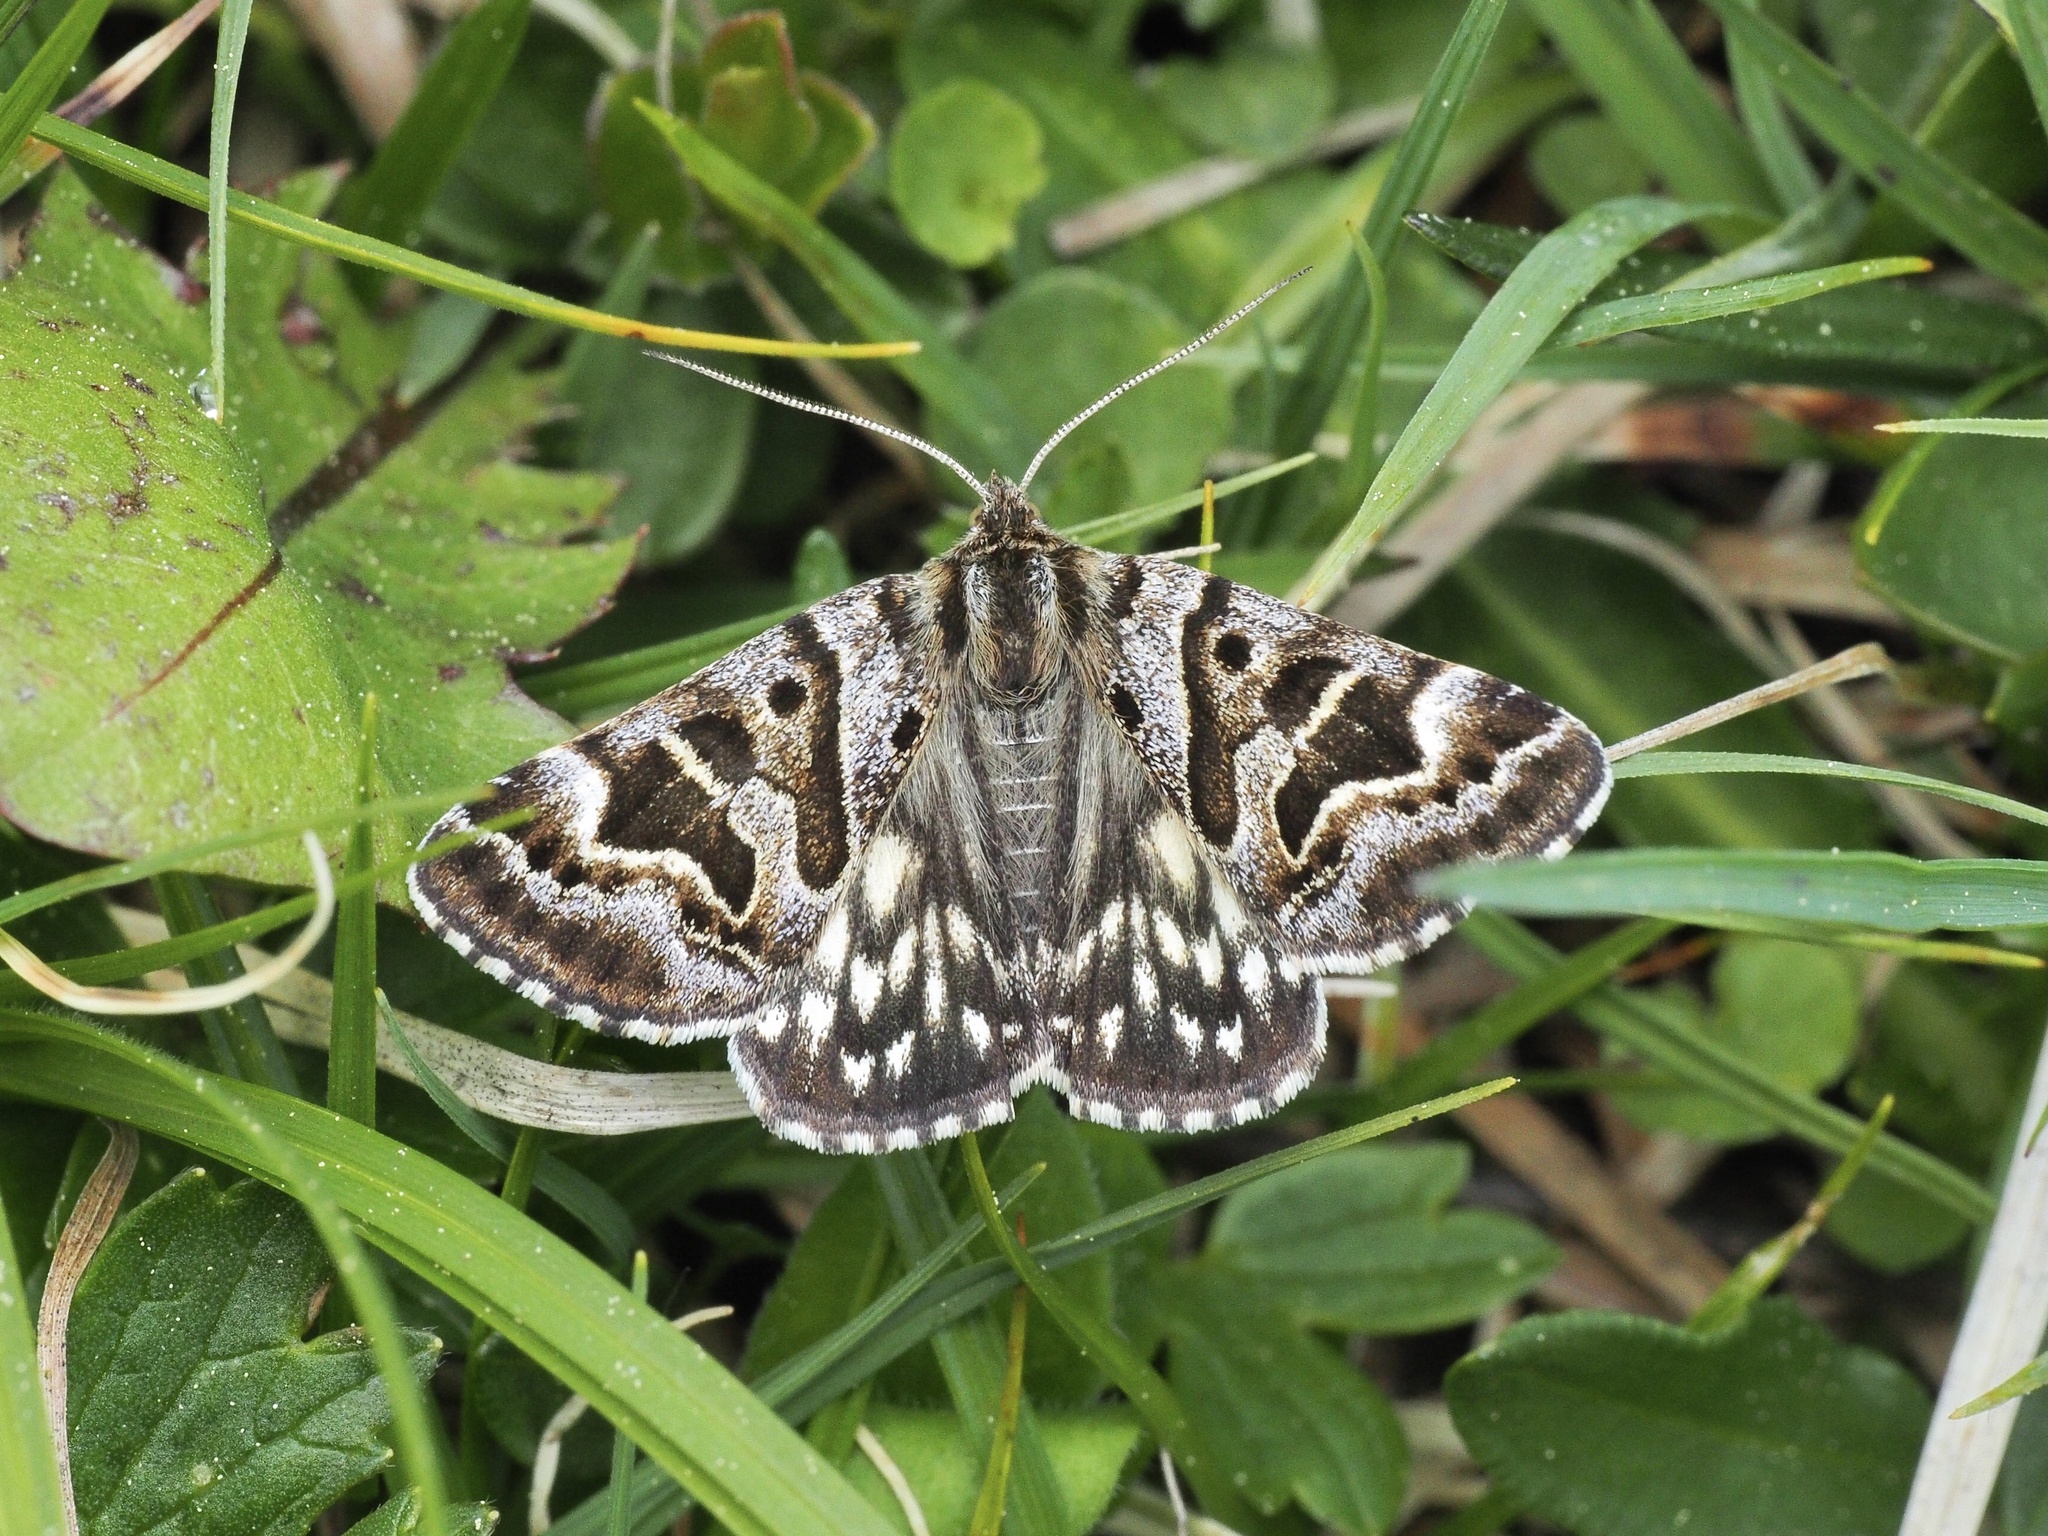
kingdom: Animalia
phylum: Arthropoda
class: Insecta
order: Lepidoptera
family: Erebidae
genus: Callistege
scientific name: Callistege mi
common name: Mother shipton
